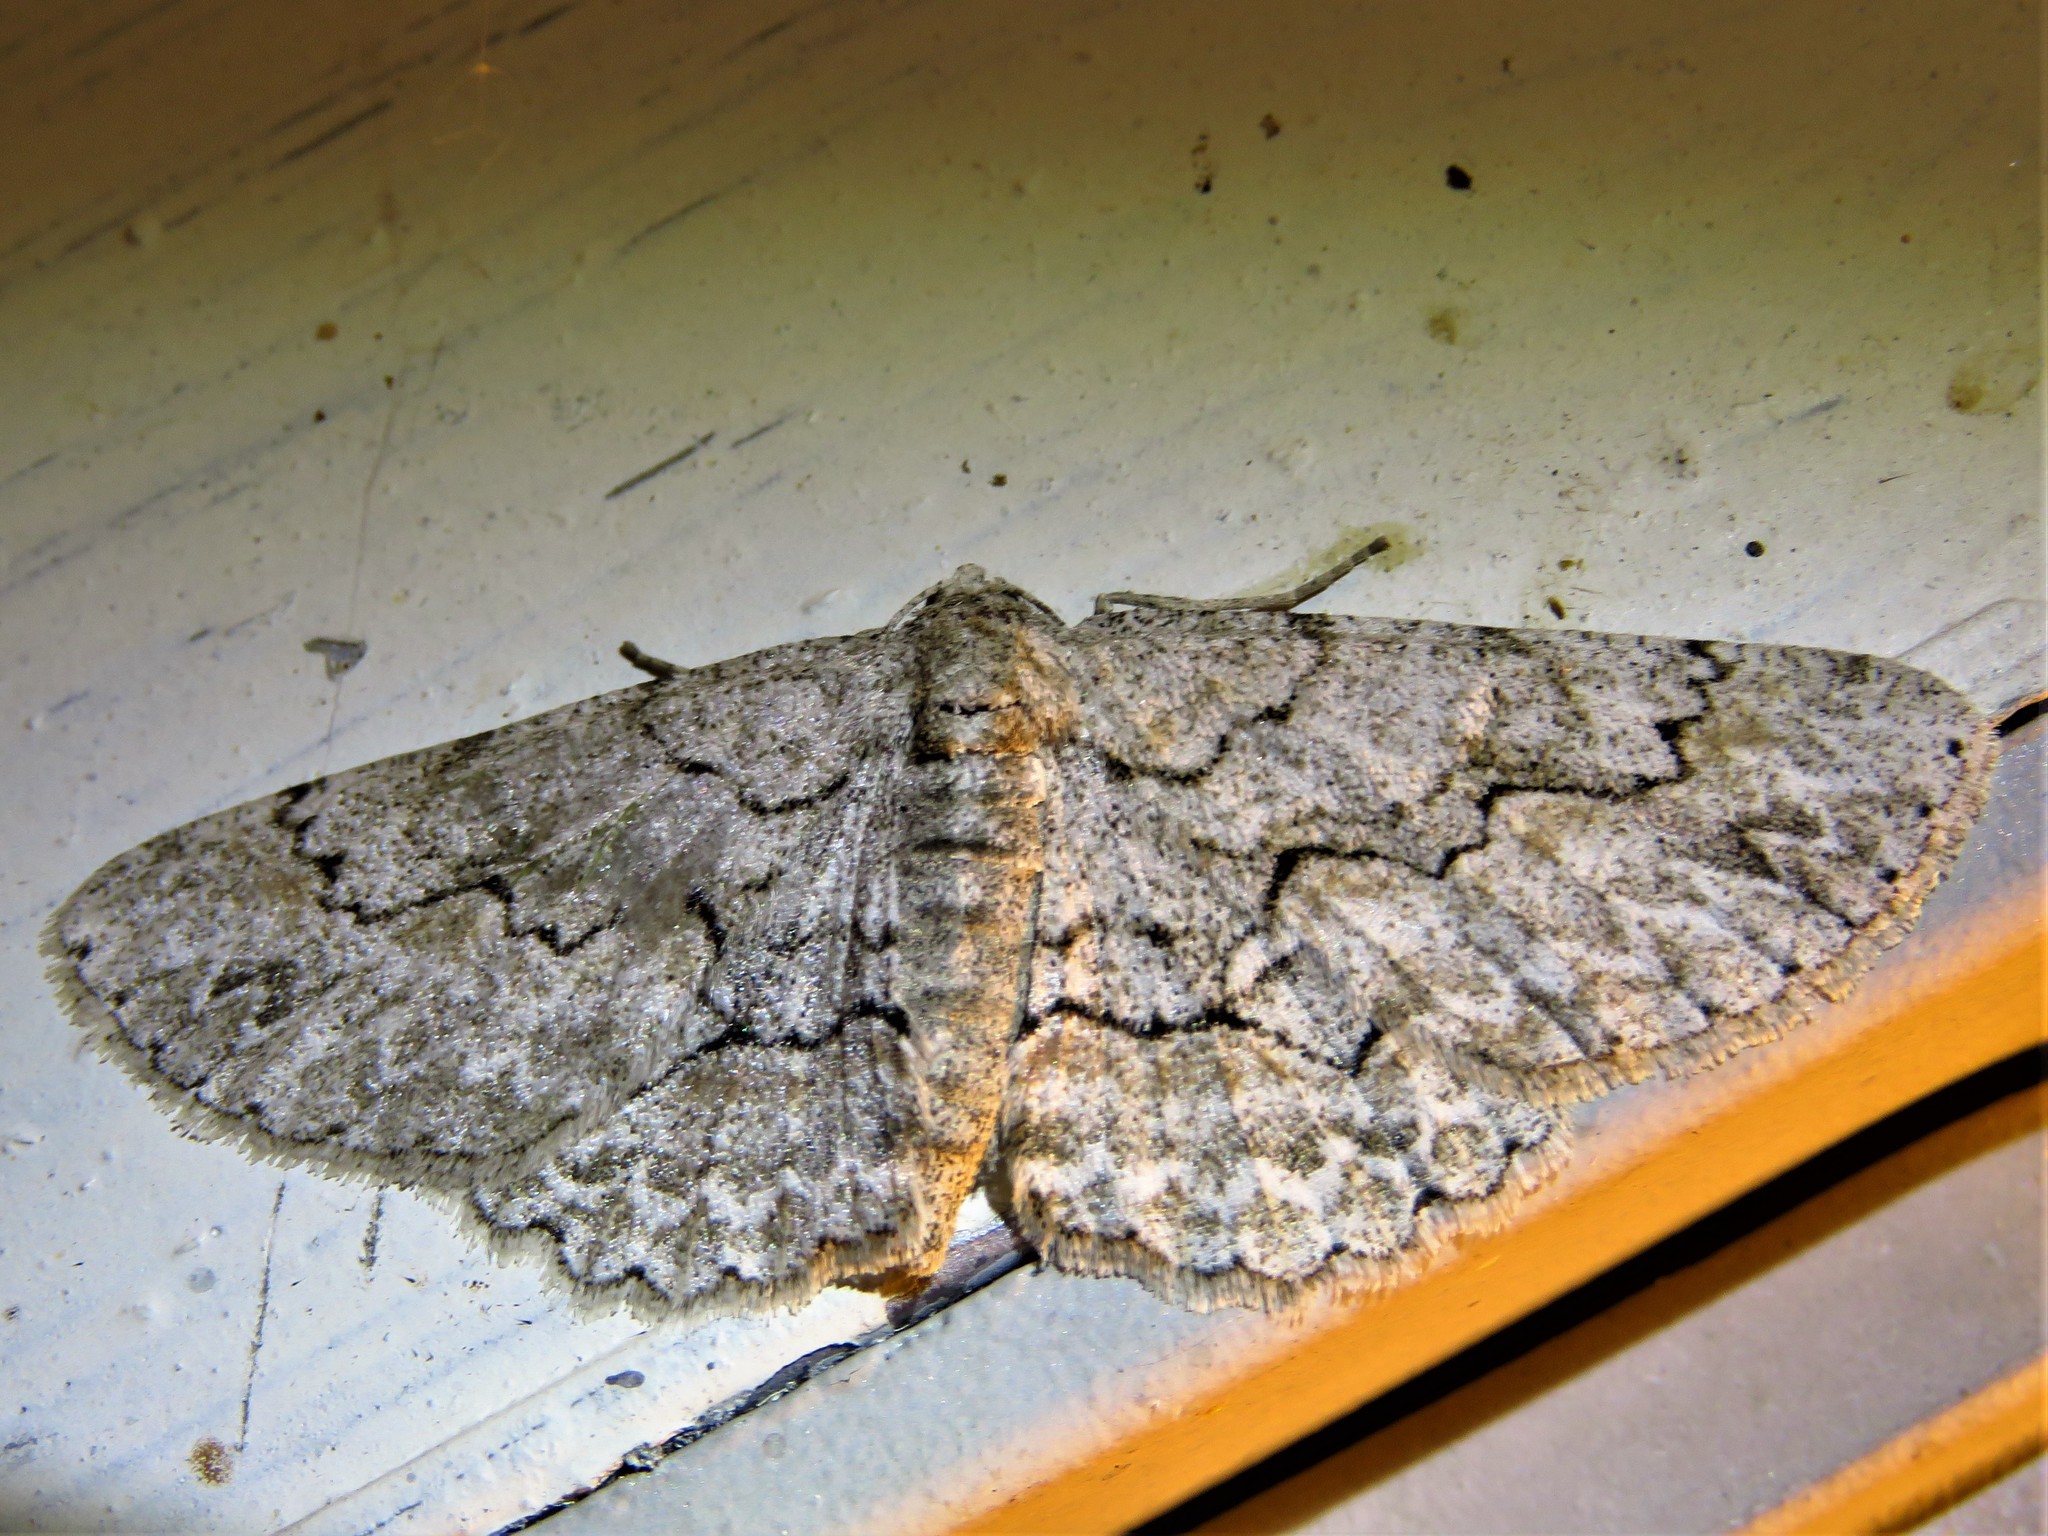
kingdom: Animalia
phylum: Arthropoda
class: Insecta
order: Lepidoptera
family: Geometridae
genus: Iridopsis
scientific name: Iridopsis defectaria
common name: Brown-shaded gray
